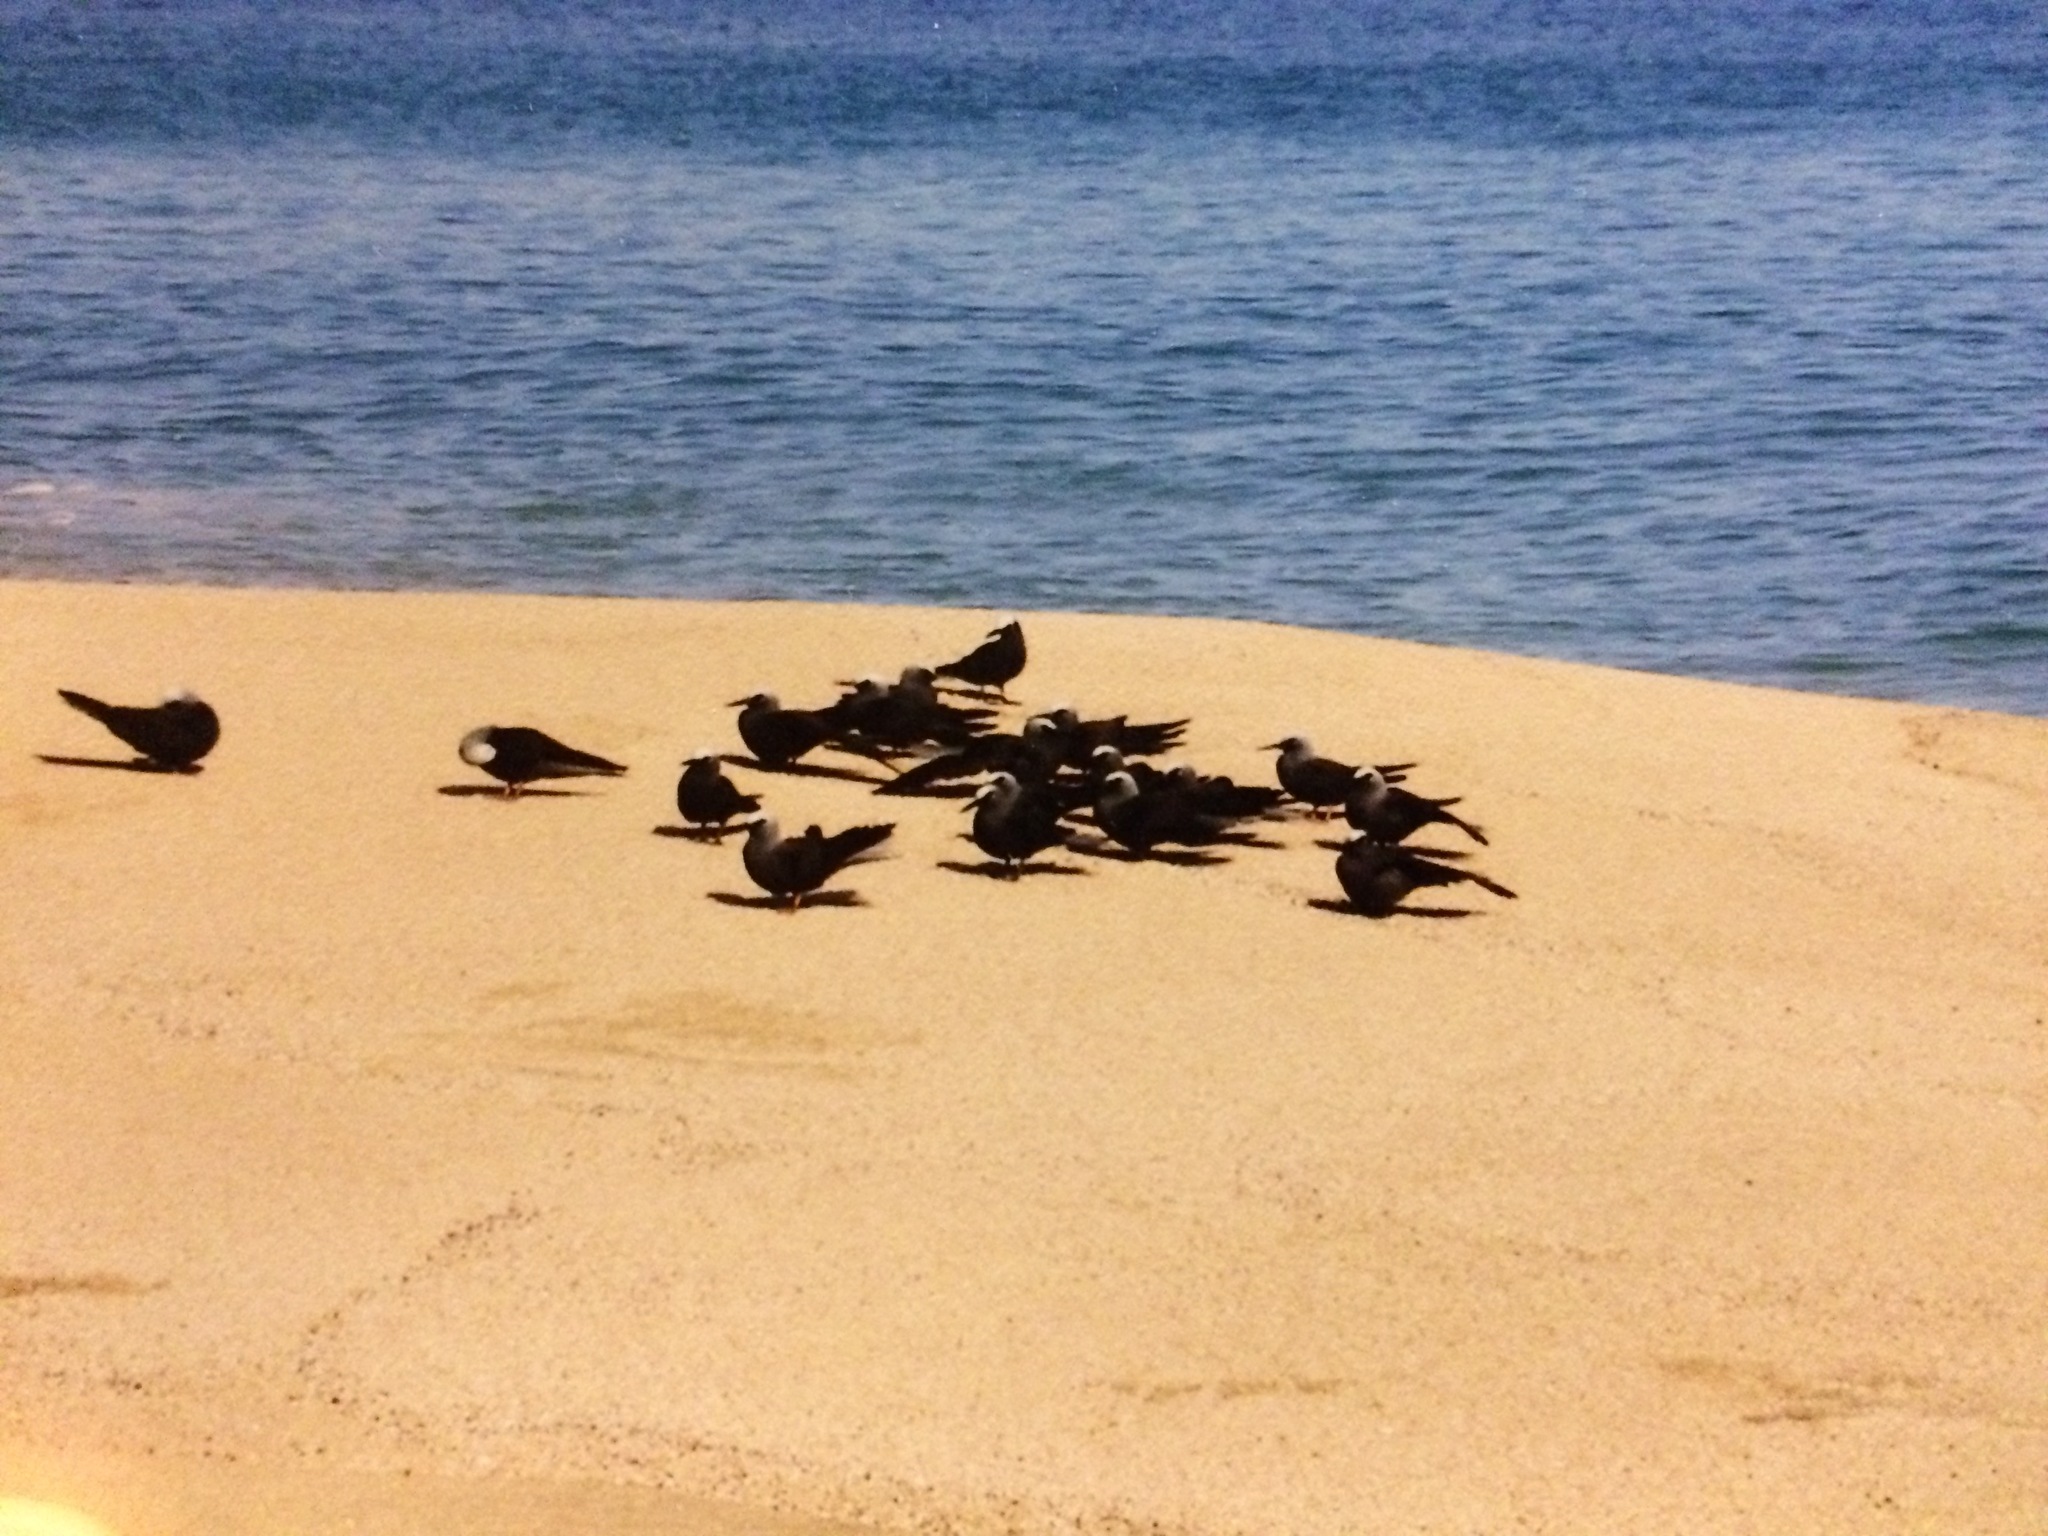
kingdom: Animalia
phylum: Chordata
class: Aves
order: Charadriiformes
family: Laridae
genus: Anous
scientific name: Anous minutus
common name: Black noddy
